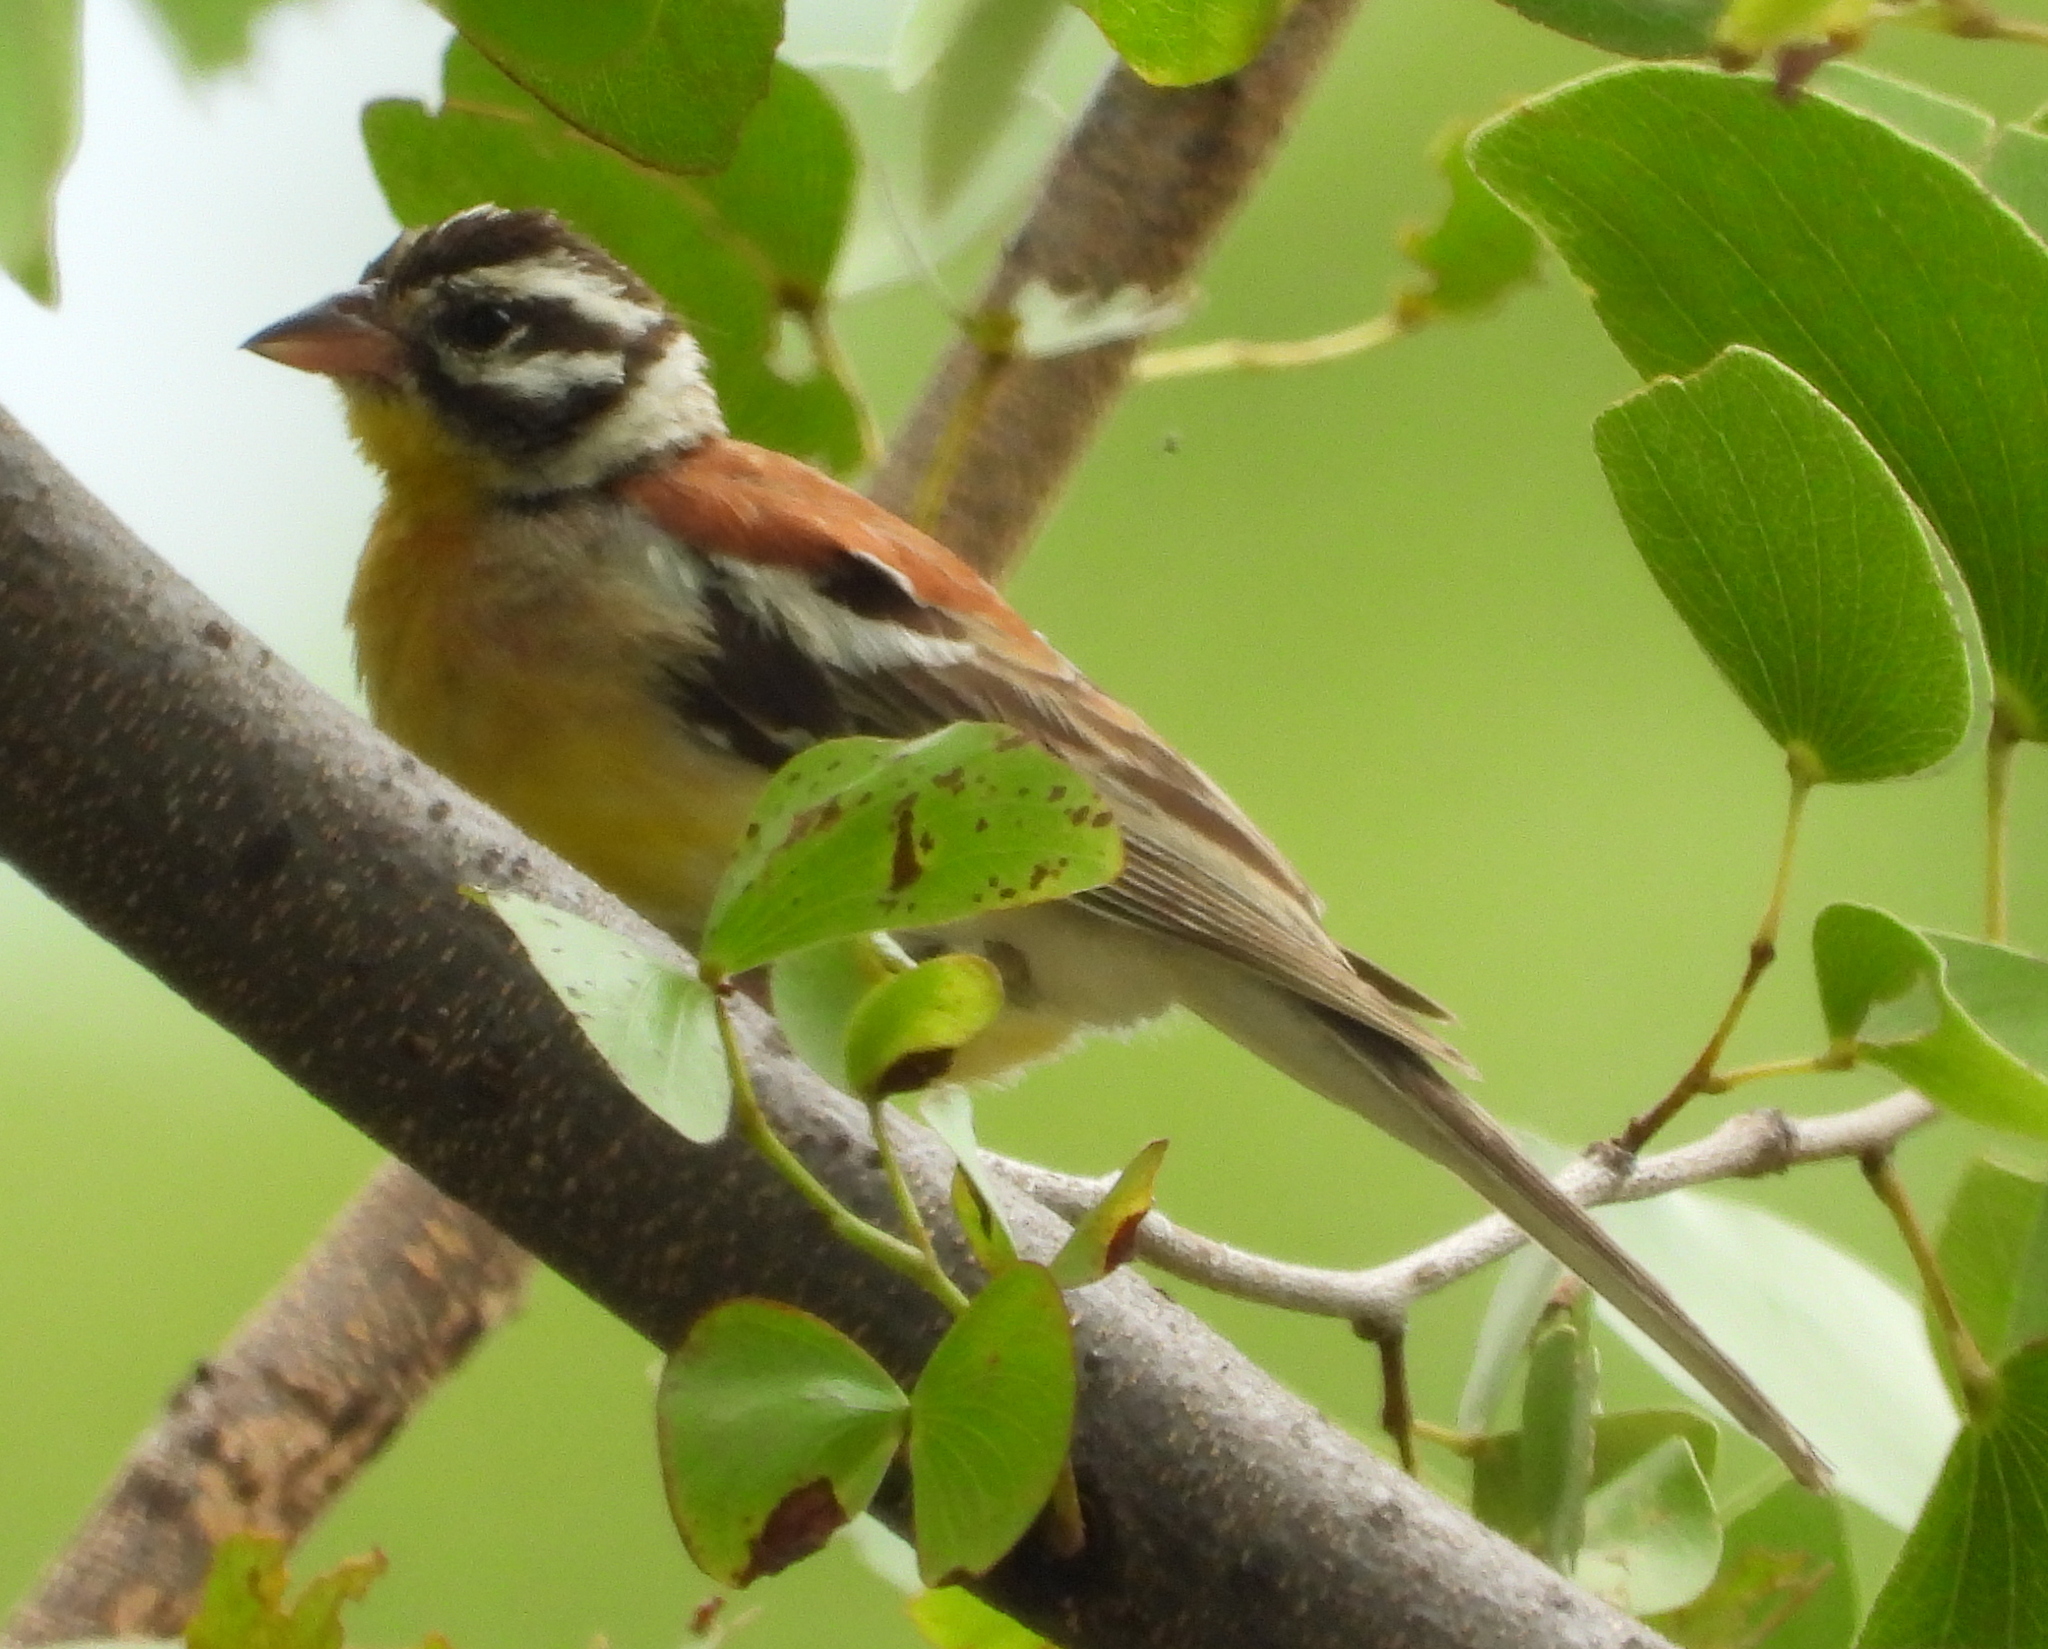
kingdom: Animalia
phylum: Chordata
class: Aves
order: Passeriformes
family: Emberizidae
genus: Emberiza
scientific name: Emberiza flaviventris
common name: Golden-breasted bunting
